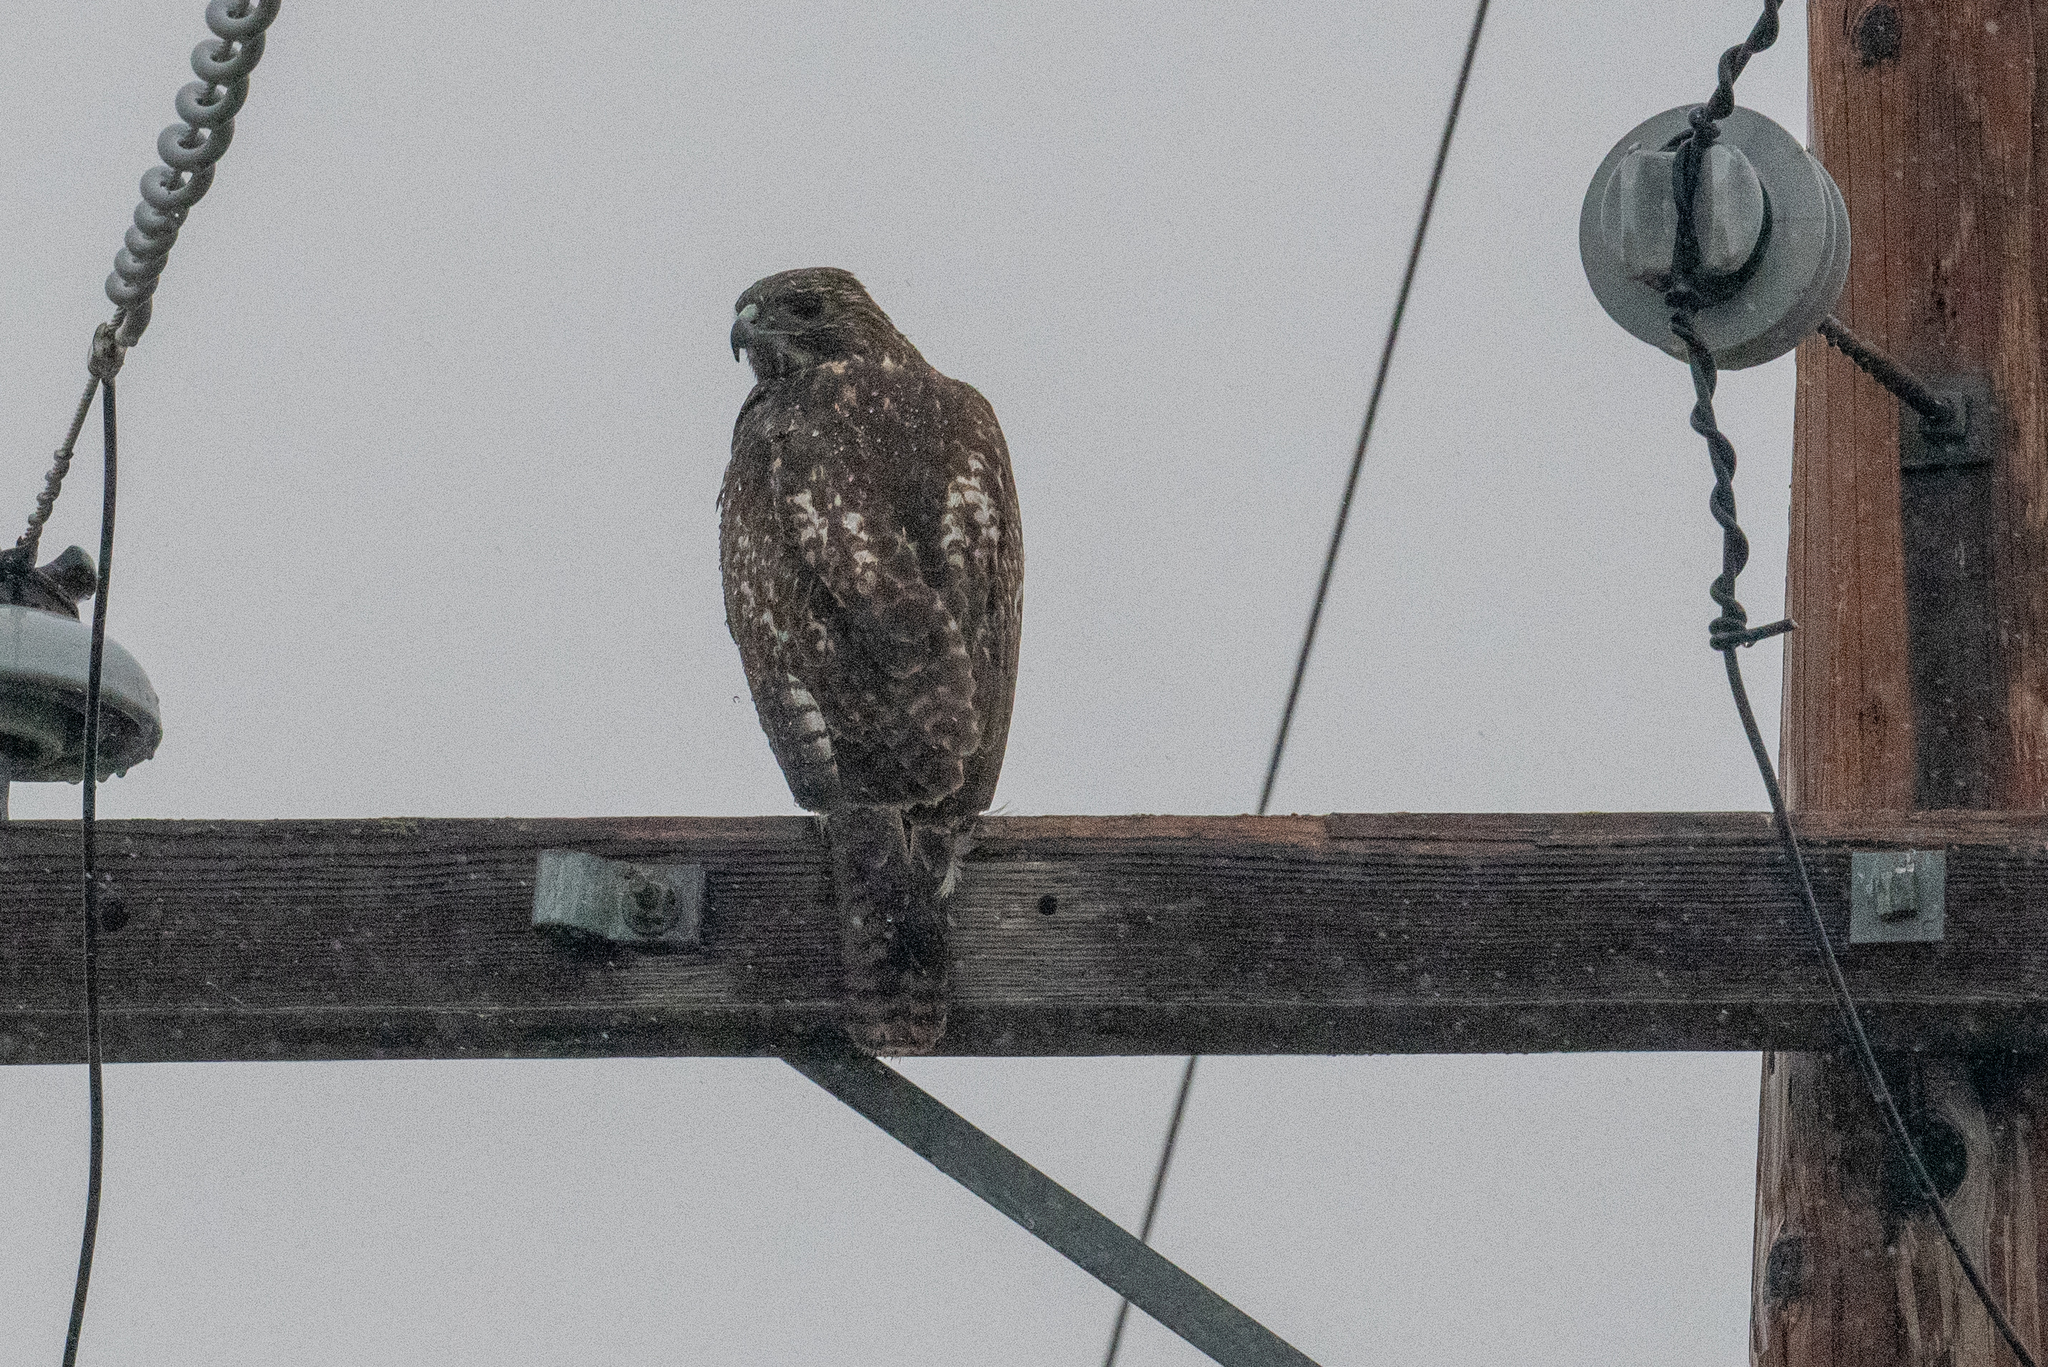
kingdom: Animalia
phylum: Chordata
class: Aves
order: Accipitriformes
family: Accipitridae
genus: Buteo
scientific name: Buteo jamaicensis
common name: Red-tailed hawk
